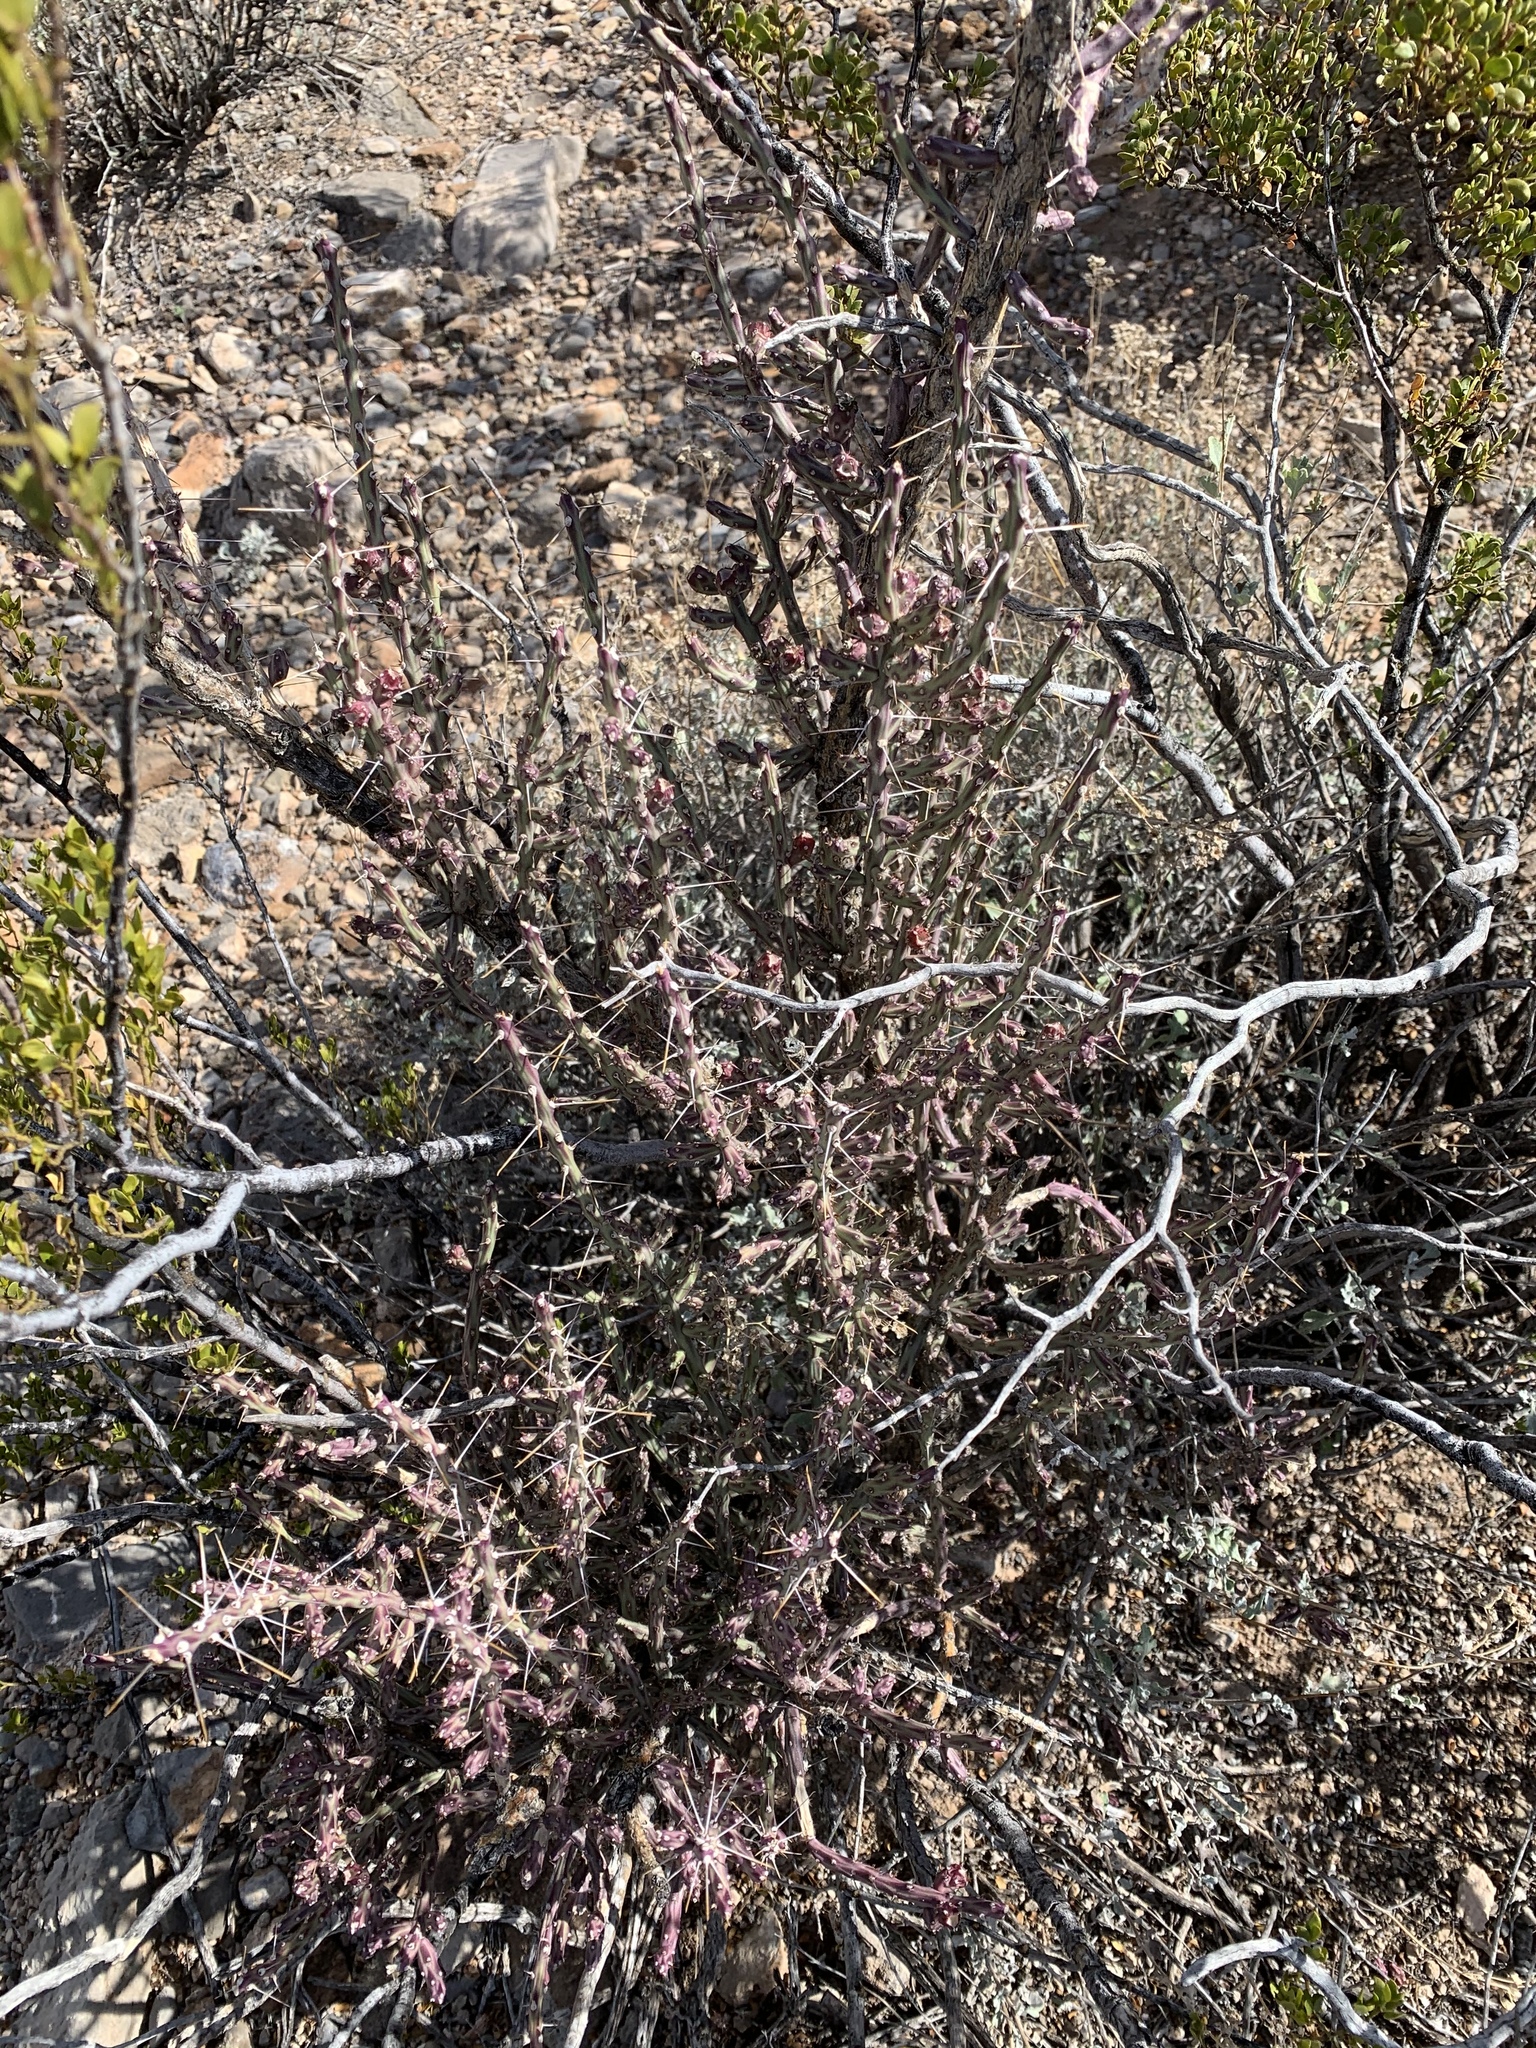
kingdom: Plantae
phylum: Tracheophyta
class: Magnoliopsida
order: Caryophyllales
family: Cactaceae
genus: Cylindropuntia
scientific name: Cylindropuntia leptocaulis
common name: Christmas cactus
